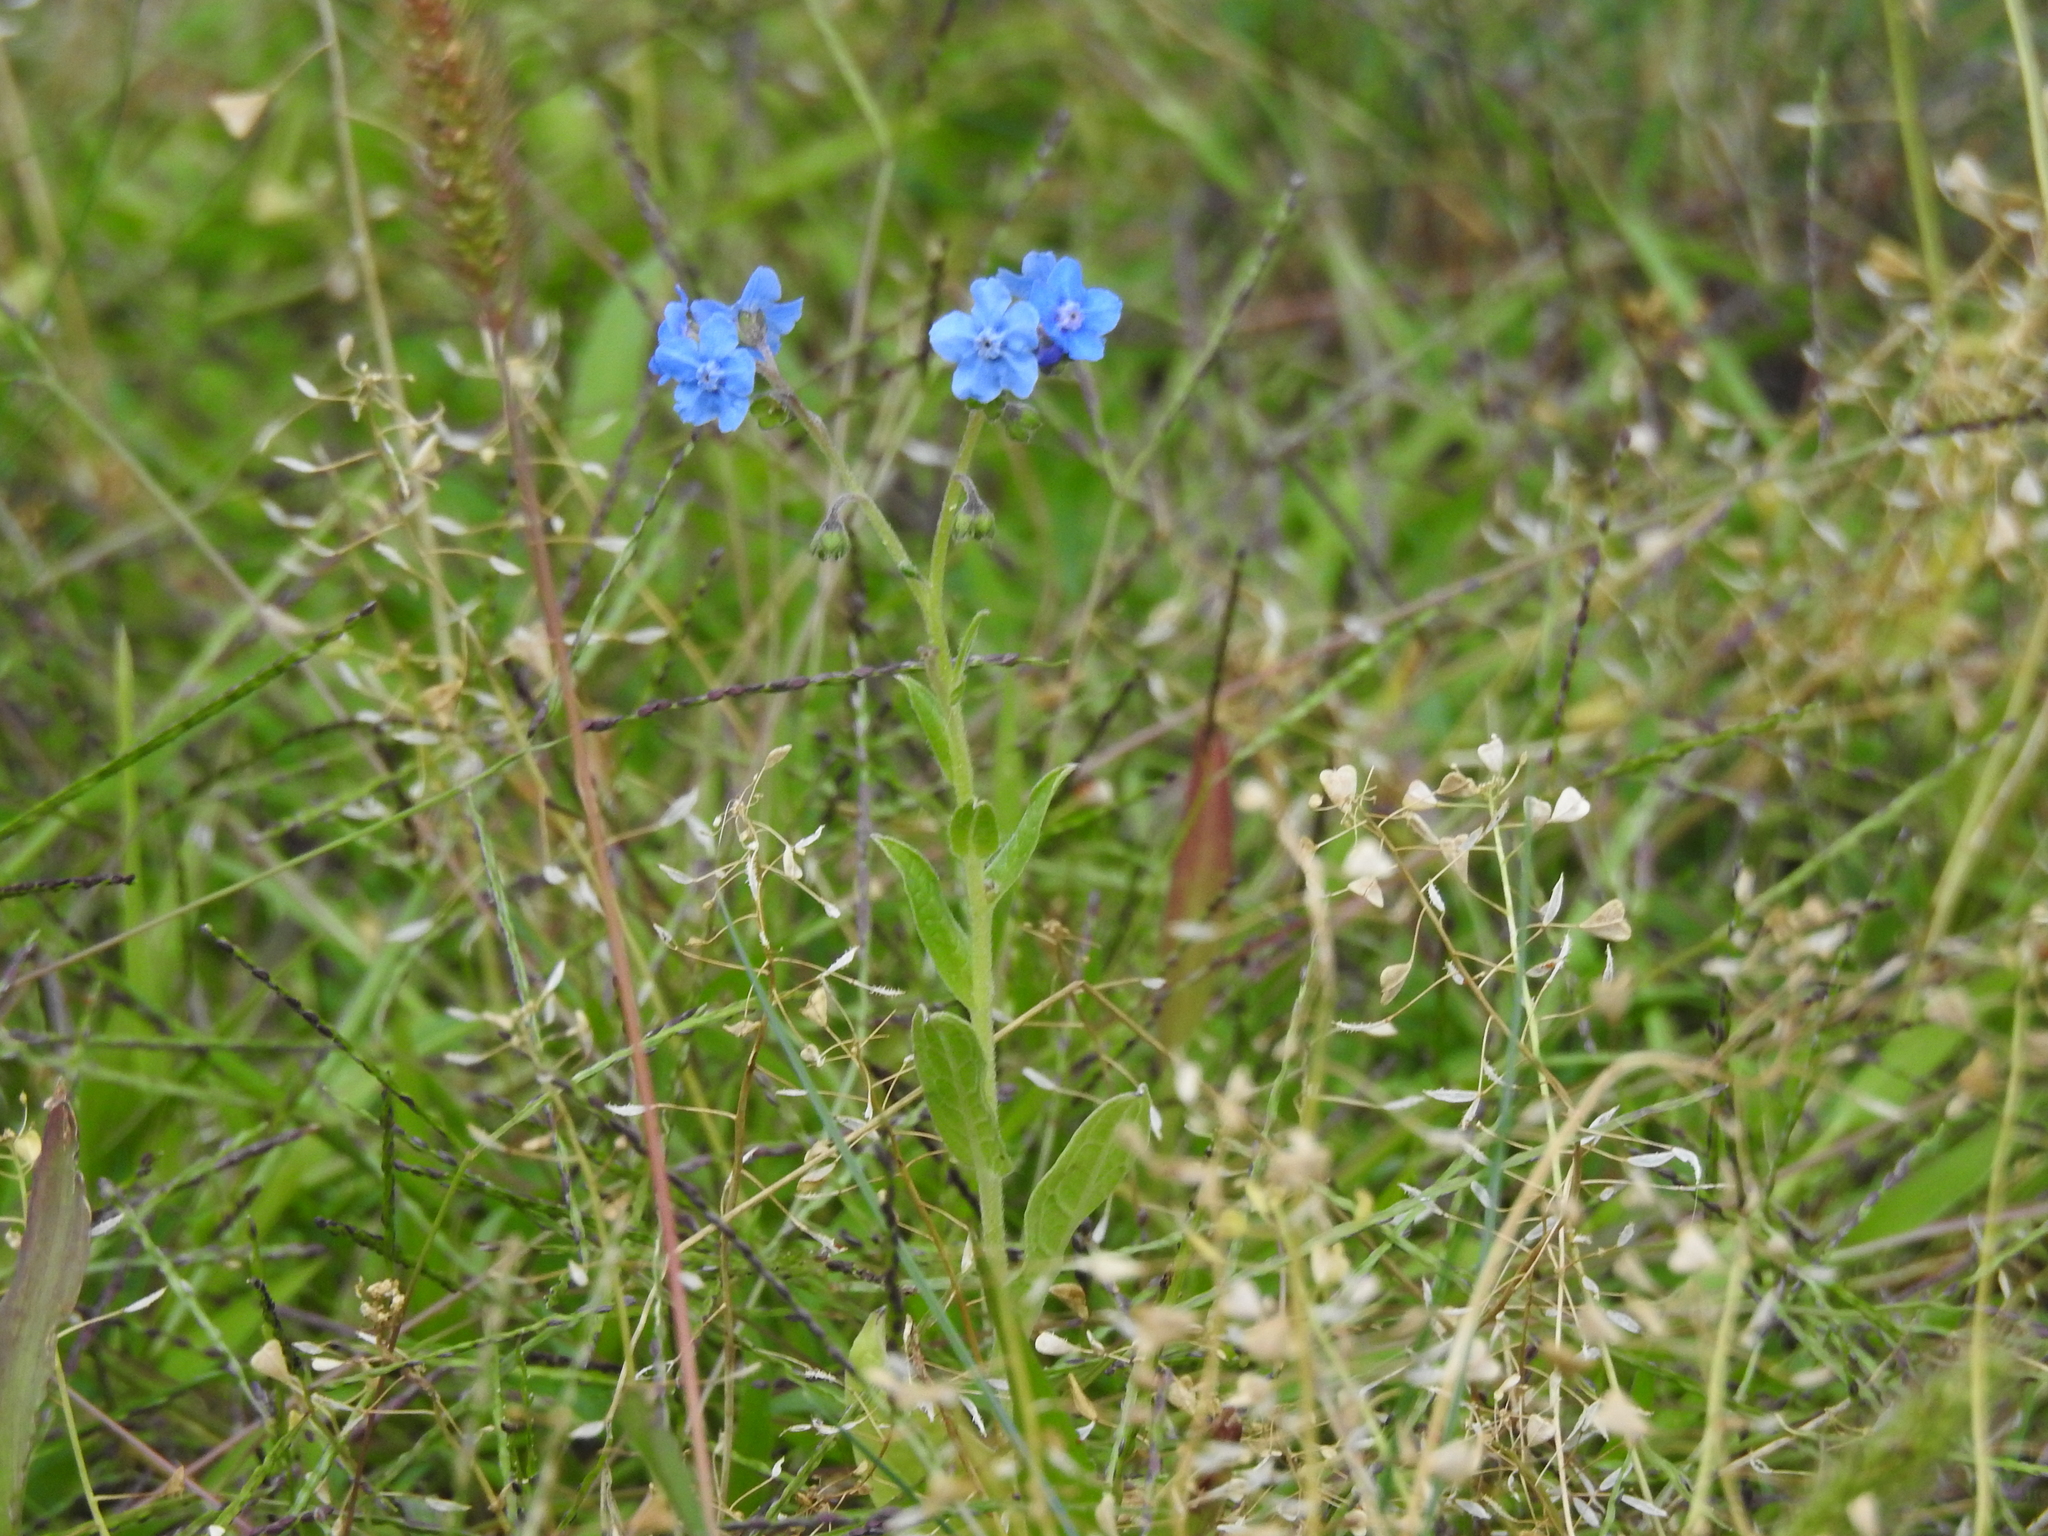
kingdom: Plantae
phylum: Tracheophyta
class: Magnoliopsida
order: Boraginales
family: Boraginaceae
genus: Cynoglossum
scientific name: Cynoglossum amabile
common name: Chinese hound's tongue
